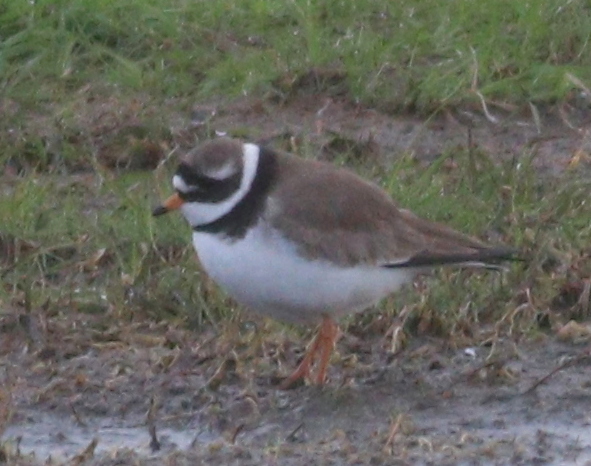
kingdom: Animalia
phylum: Chordata
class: Aves
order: Charadriiformes
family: Charadriidae
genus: Charadrius
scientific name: Charadrius hiaticula
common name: Common ringed plover
